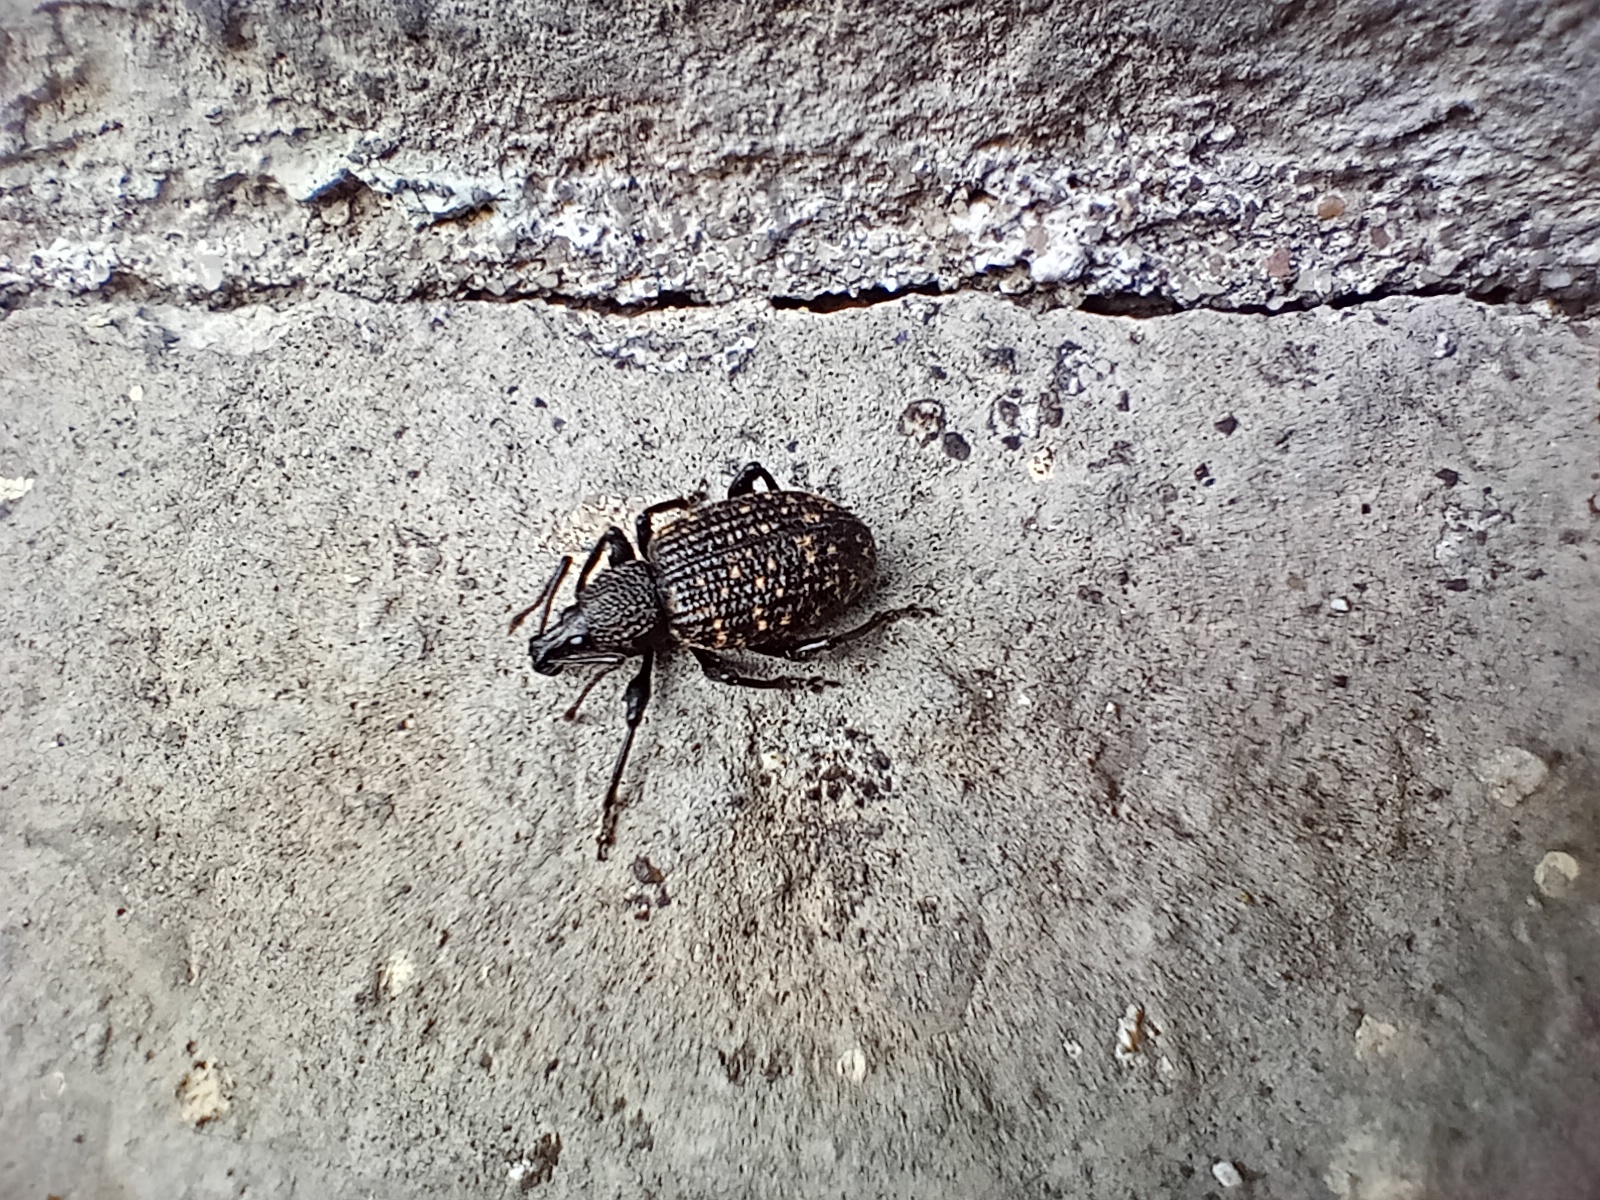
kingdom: Animalia
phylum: Arthropoda
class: Insecta
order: Coleoptera
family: Curculionidae
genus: Otiorhynchus
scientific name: Otiorhynchus sulcatus
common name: Black vine weevil
